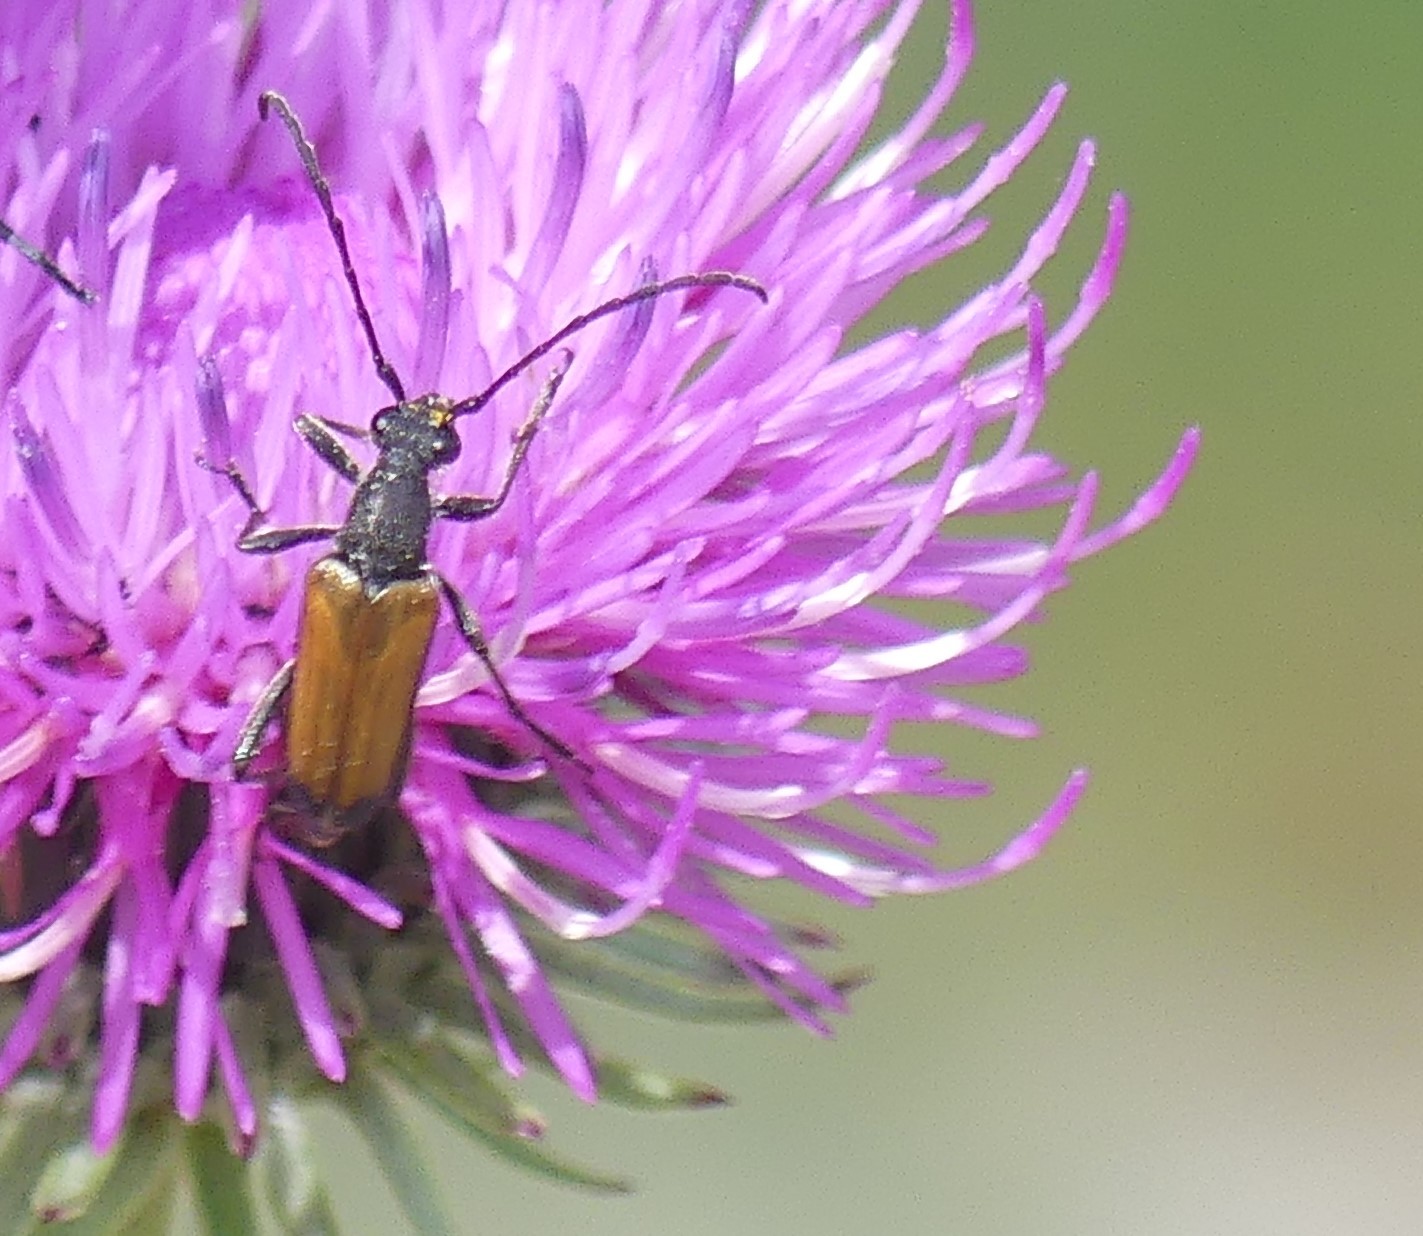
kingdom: Animalia
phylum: Arthropoda
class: Insecta
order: Coleoptera
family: Cerambycidae
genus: Anastrangalia
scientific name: Anastrangalia sanguinolenta
